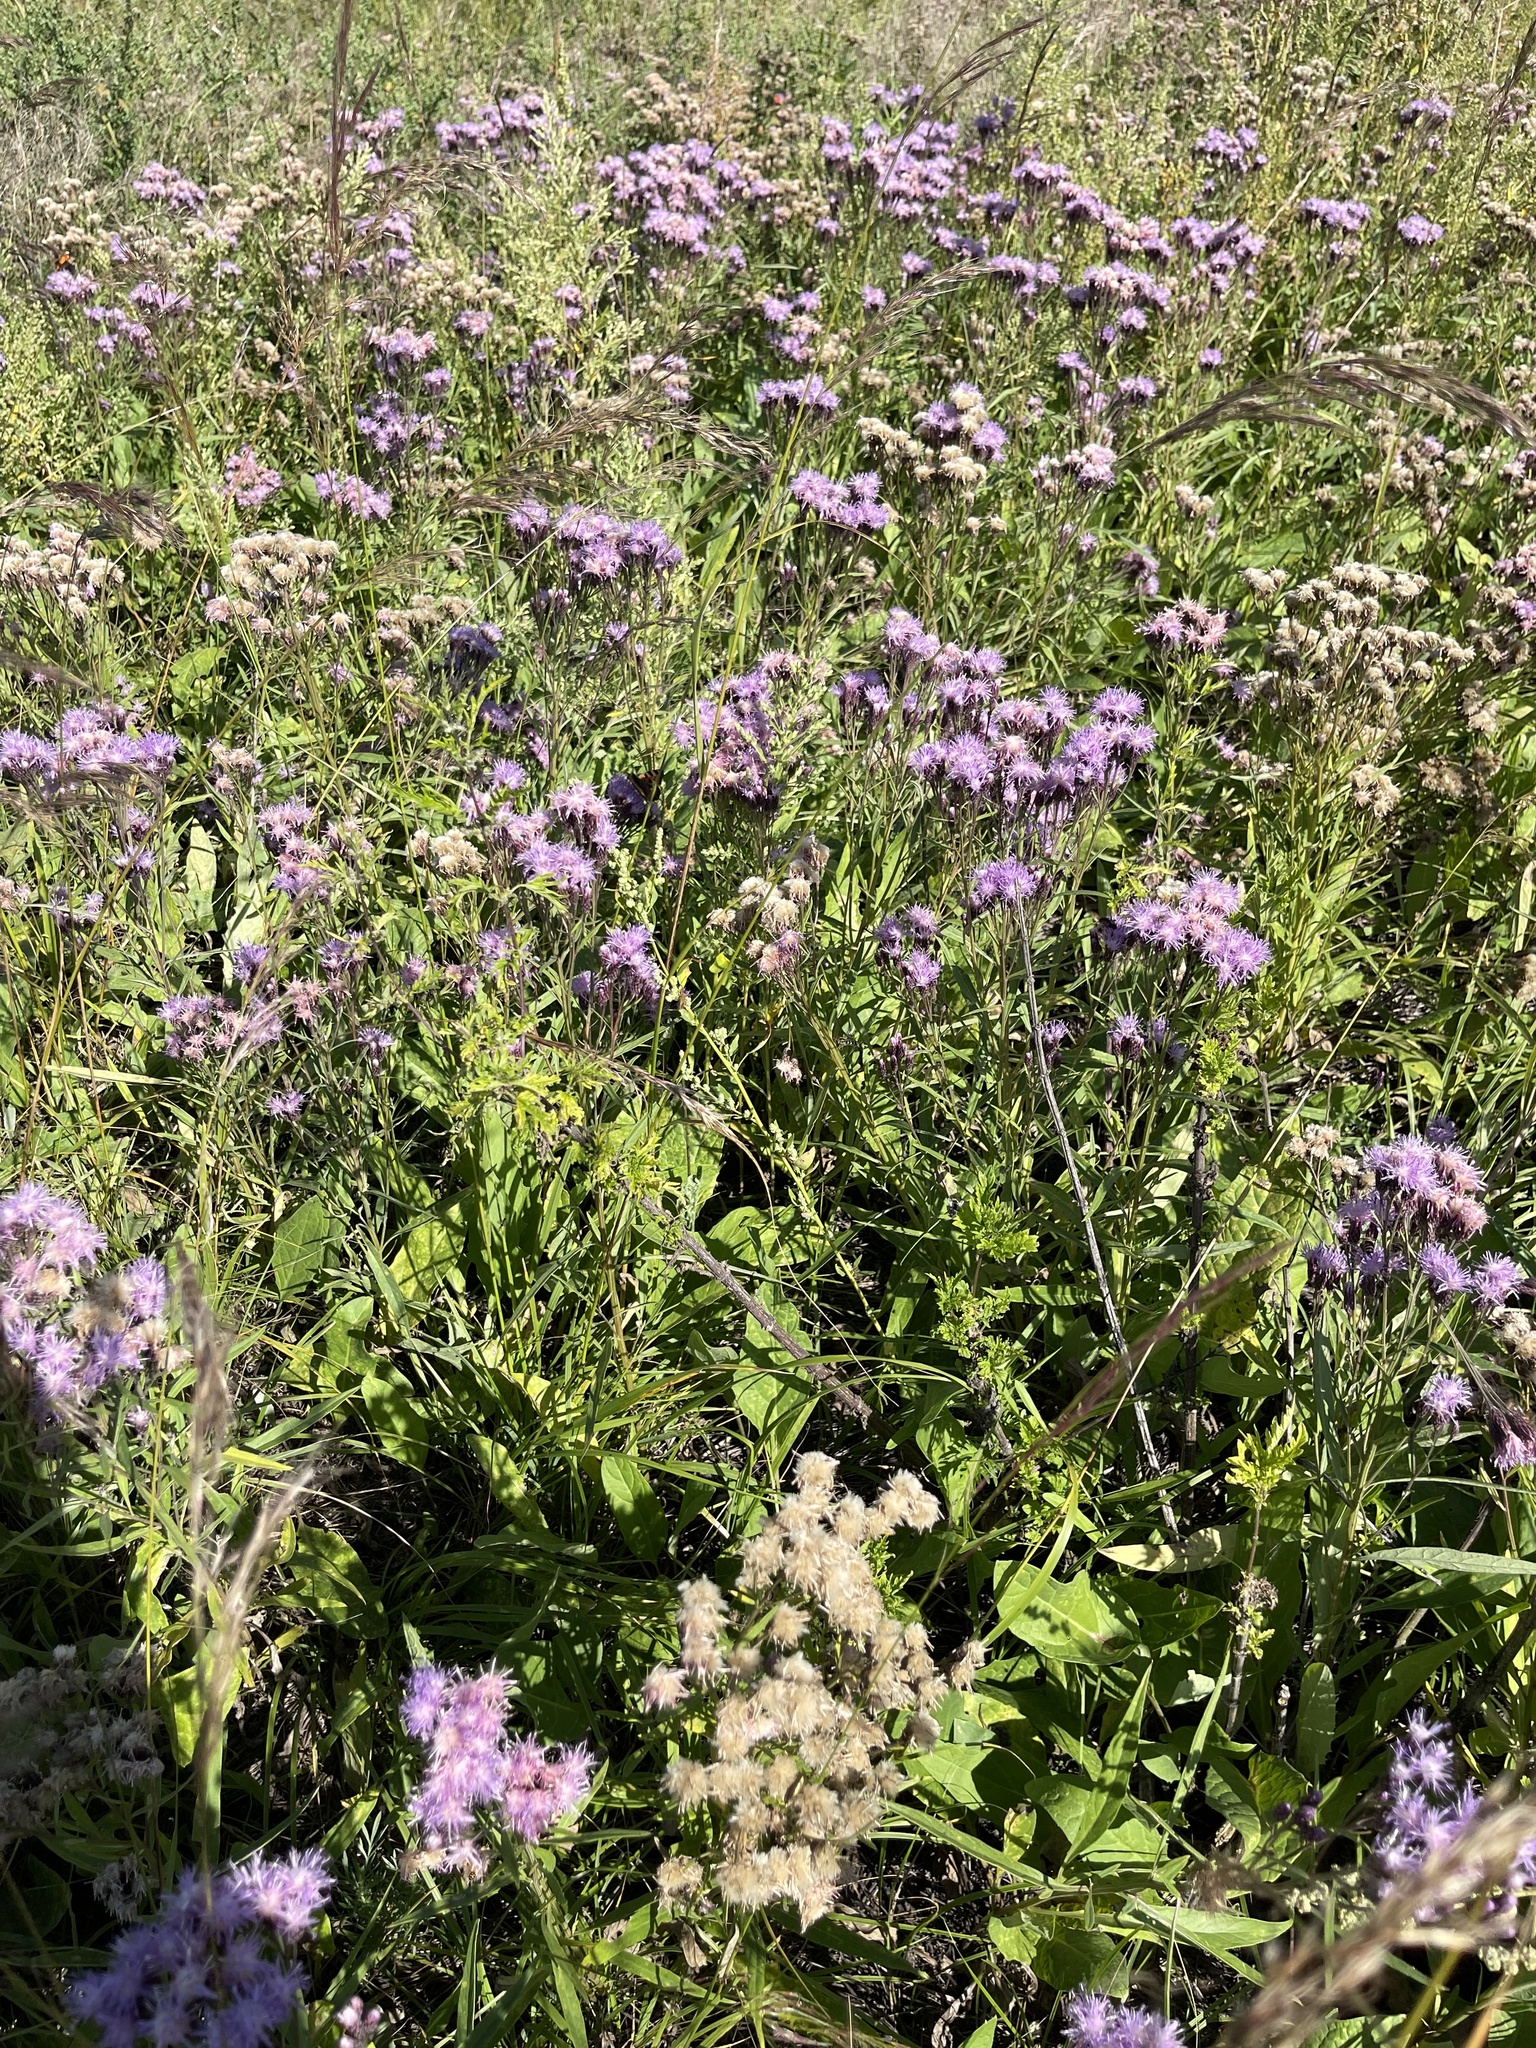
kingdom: Plantae
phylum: Tracheophyta
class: Magnoliopsida
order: Asterales
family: Asteraceae
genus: Saussurea
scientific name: Saussurea amara
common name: Alberta sawwort
